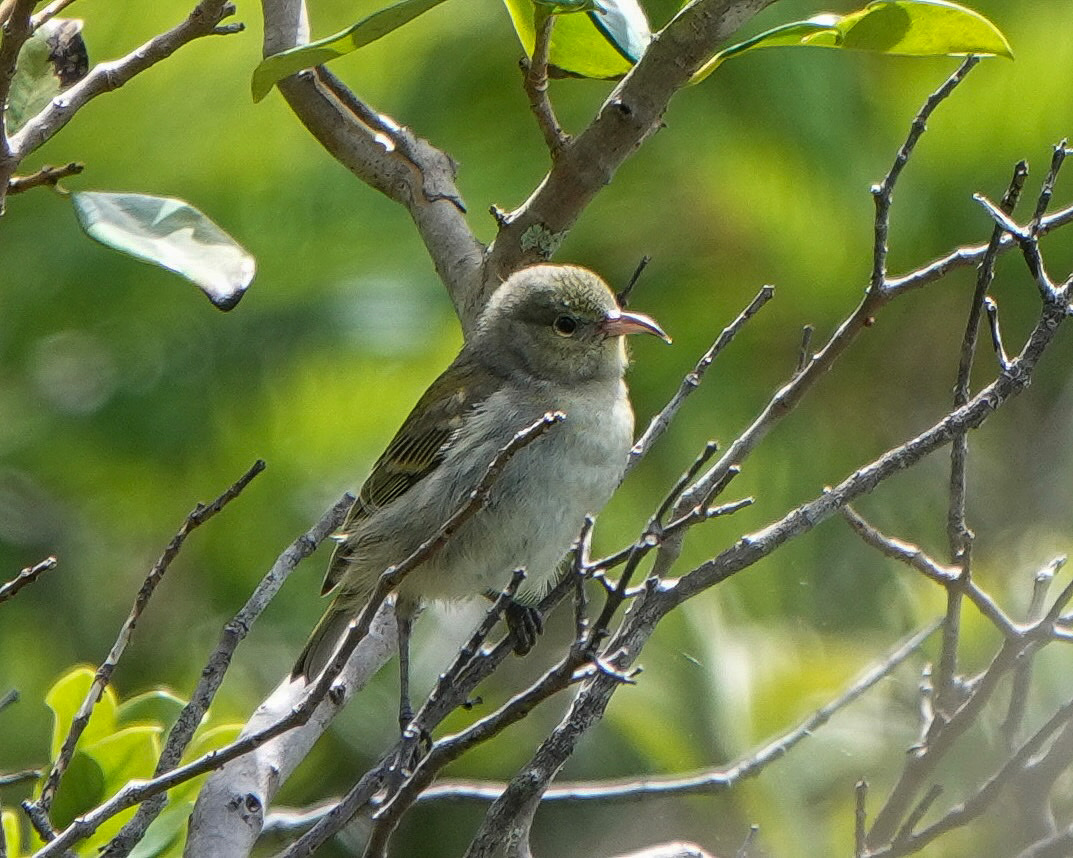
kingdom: Animalia
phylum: Chordata
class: Aves
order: Passeriformes
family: Fringillidae
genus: Chlorodrepanis
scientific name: Chlorodrepanis flava
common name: Oahu amakihi
